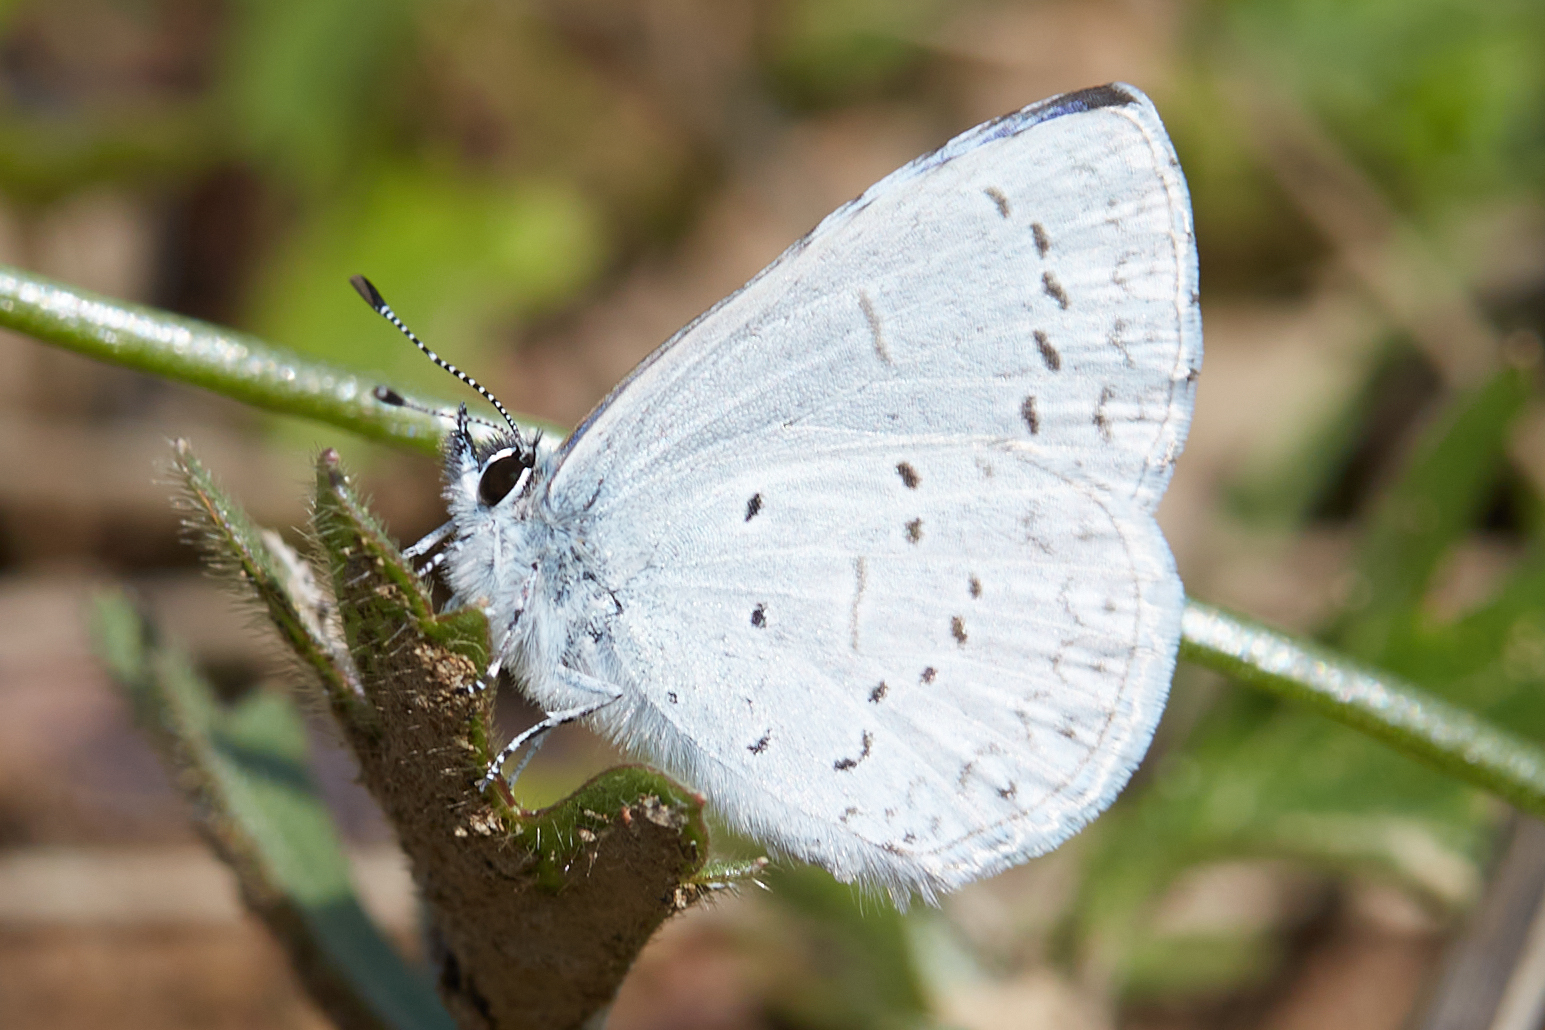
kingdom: Animalia
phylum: Arthropoda
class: Insecta
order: Lepidoptera
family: Lycaenidae
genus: Celastrina
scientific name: Celastrina ladon
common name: Spring azure
